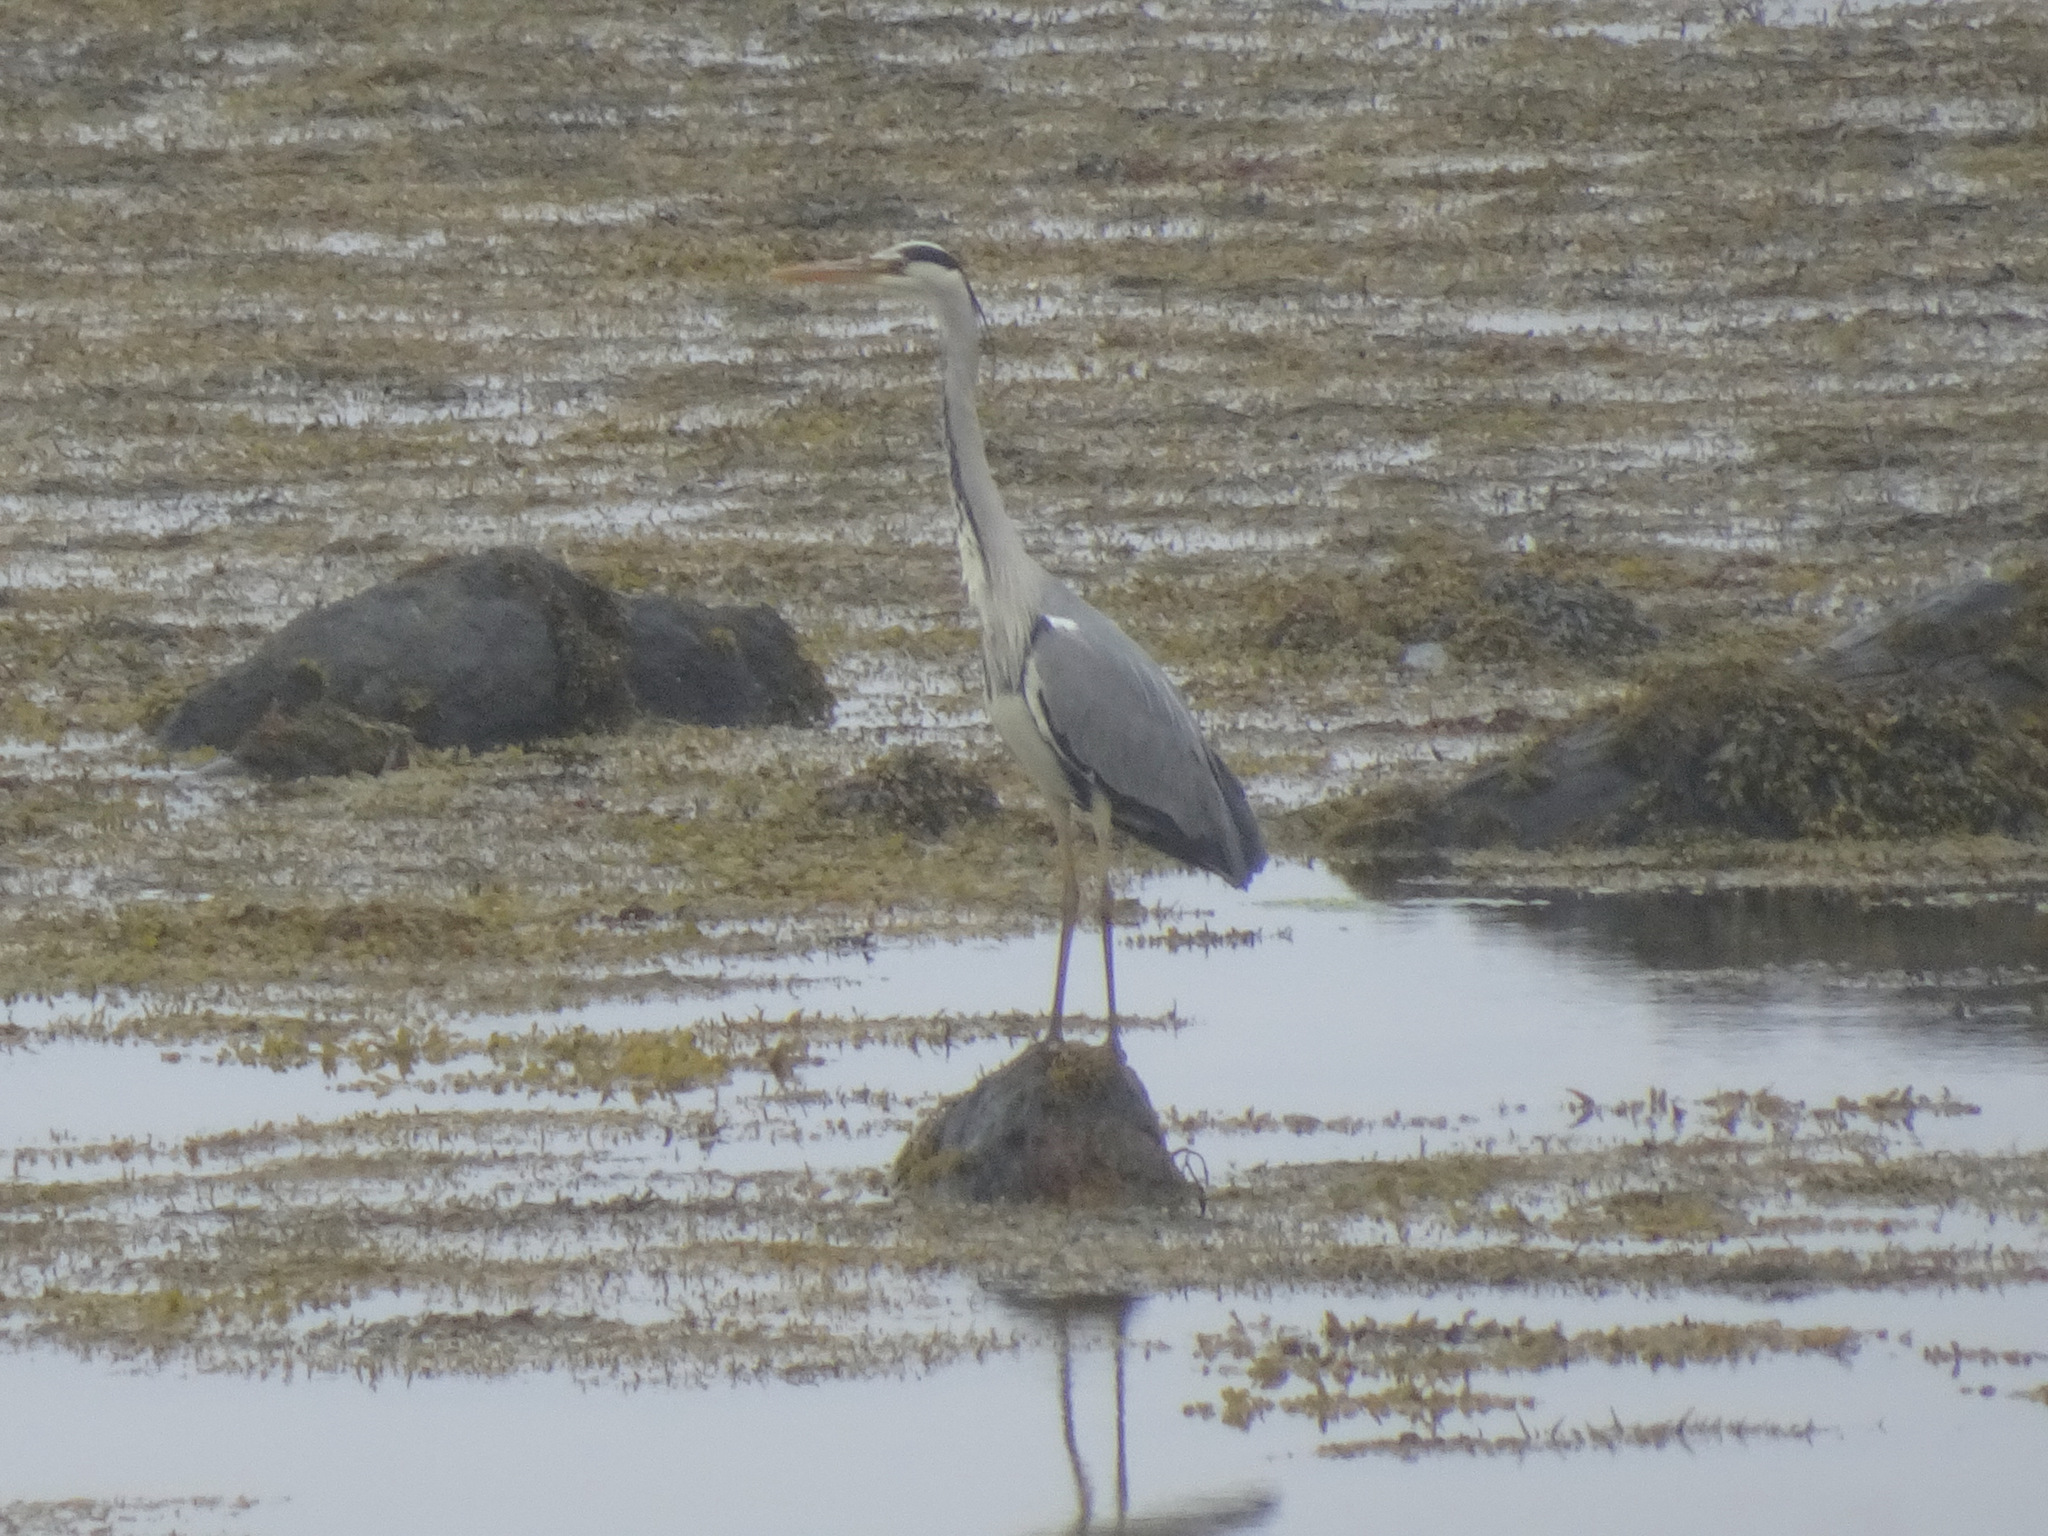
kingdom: Animalia
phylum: Chordata
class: Aves
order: Pelecaniformes
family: Ardeidae
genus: Ardea
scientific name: Ardea cinerea
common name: Grey heron
